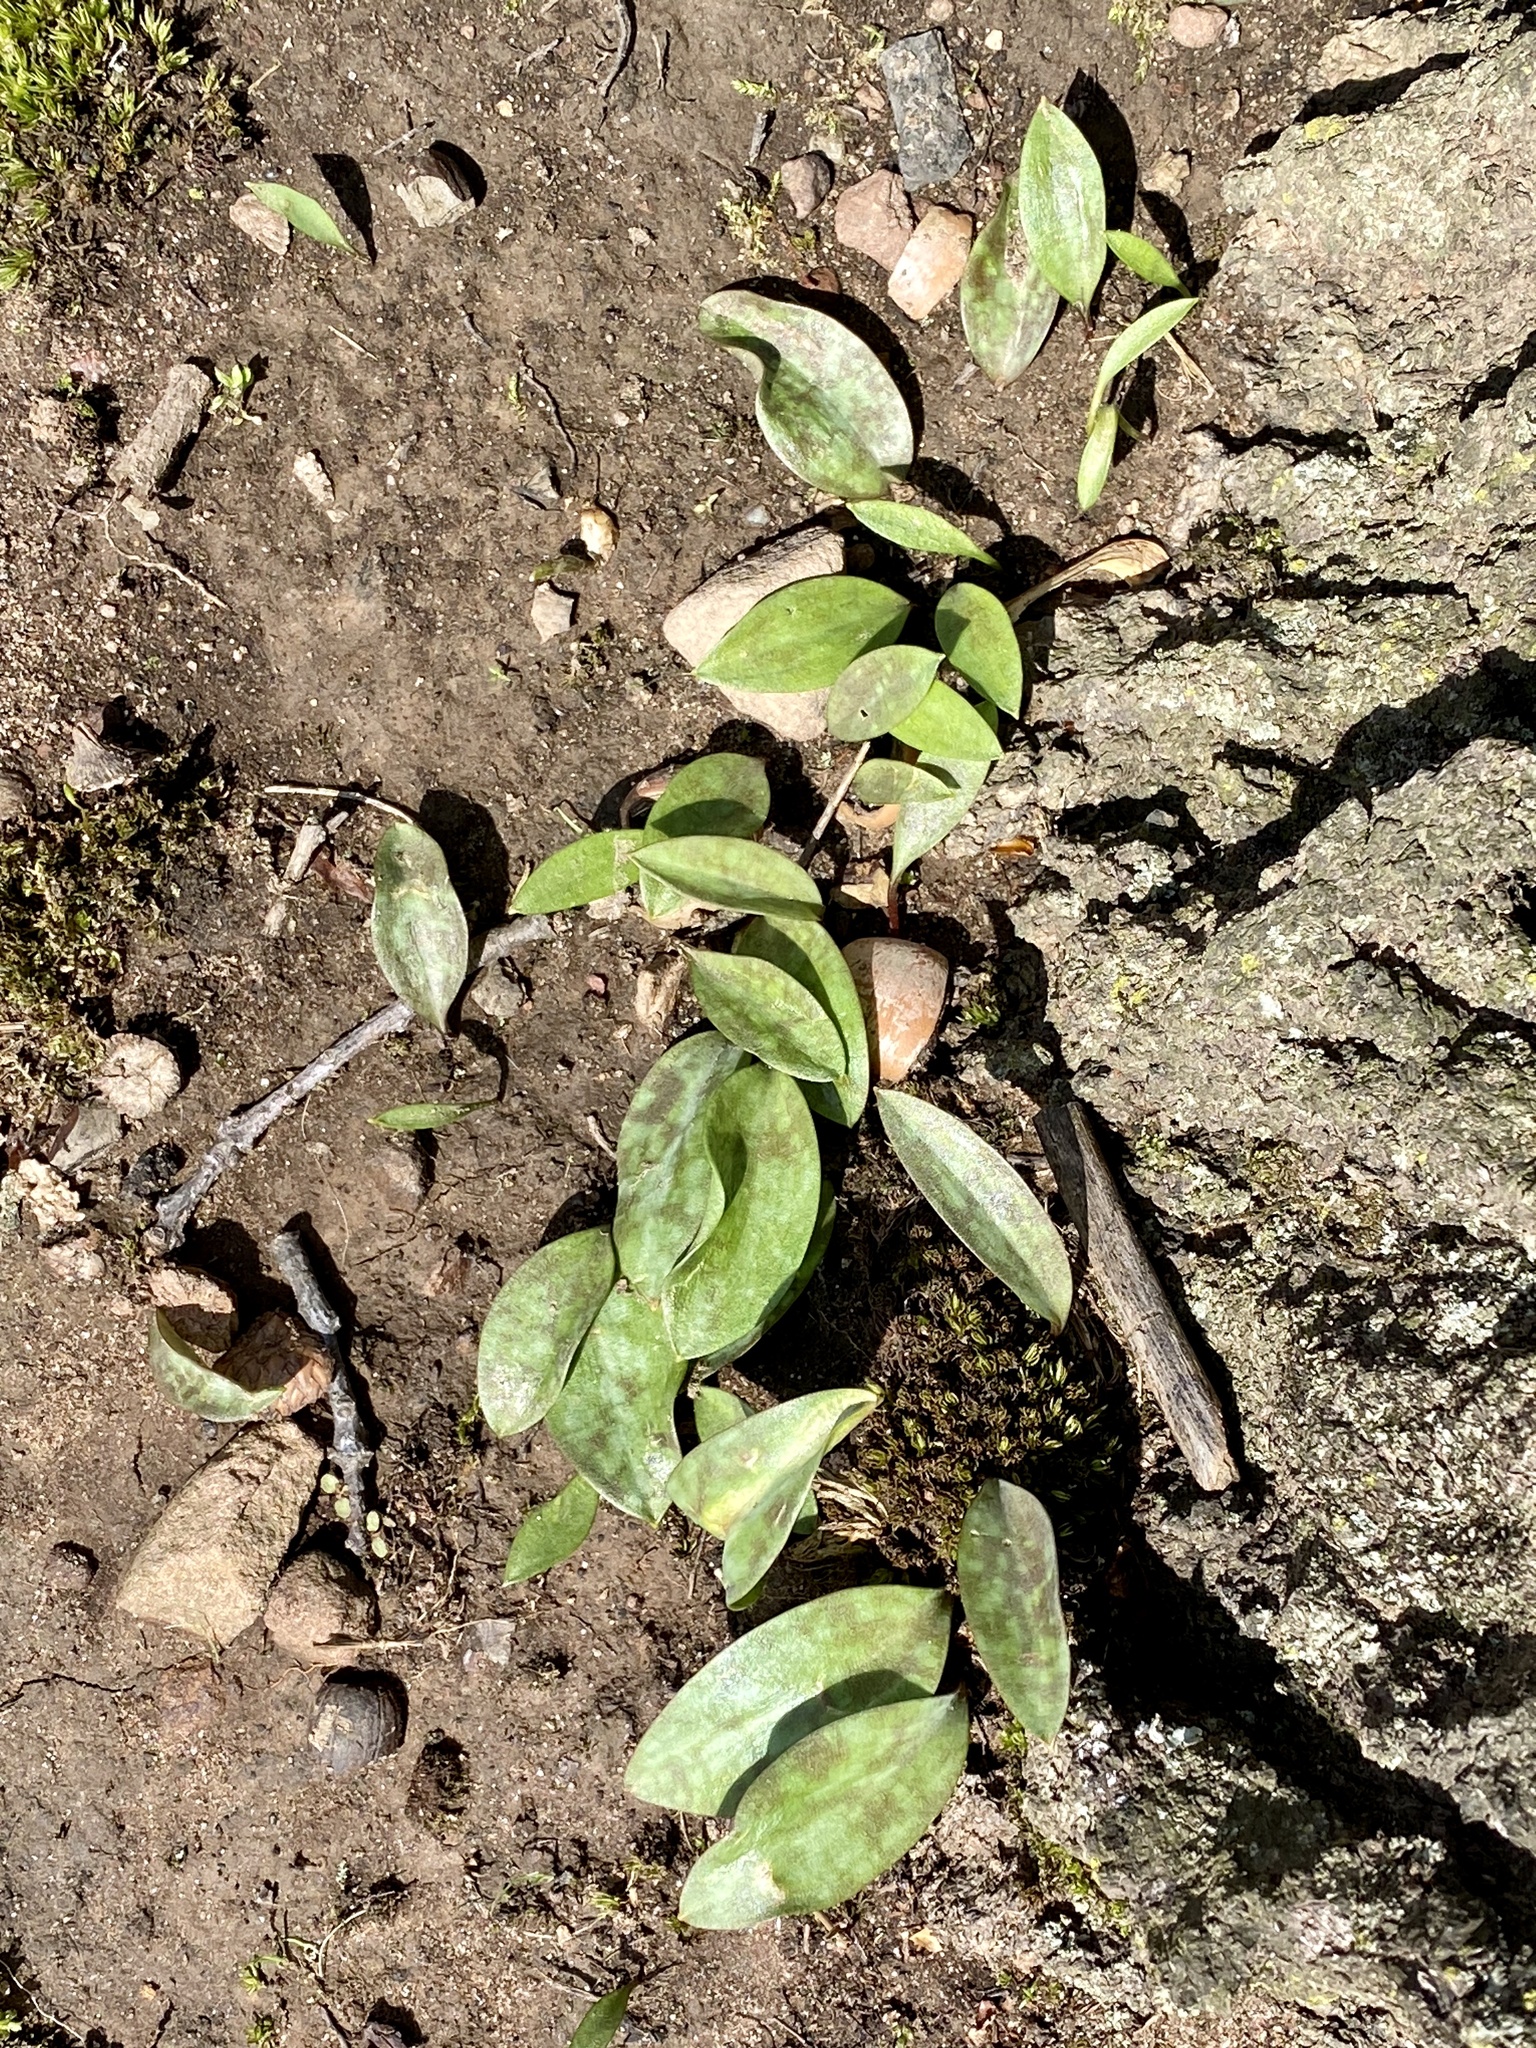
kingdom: Plantae
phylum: Tracheophyta
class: Liliopsida
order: Liliales
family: Liliaceae
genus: Erythronium
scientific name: Erythronium americanum
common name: Yellow adder's-tongue
